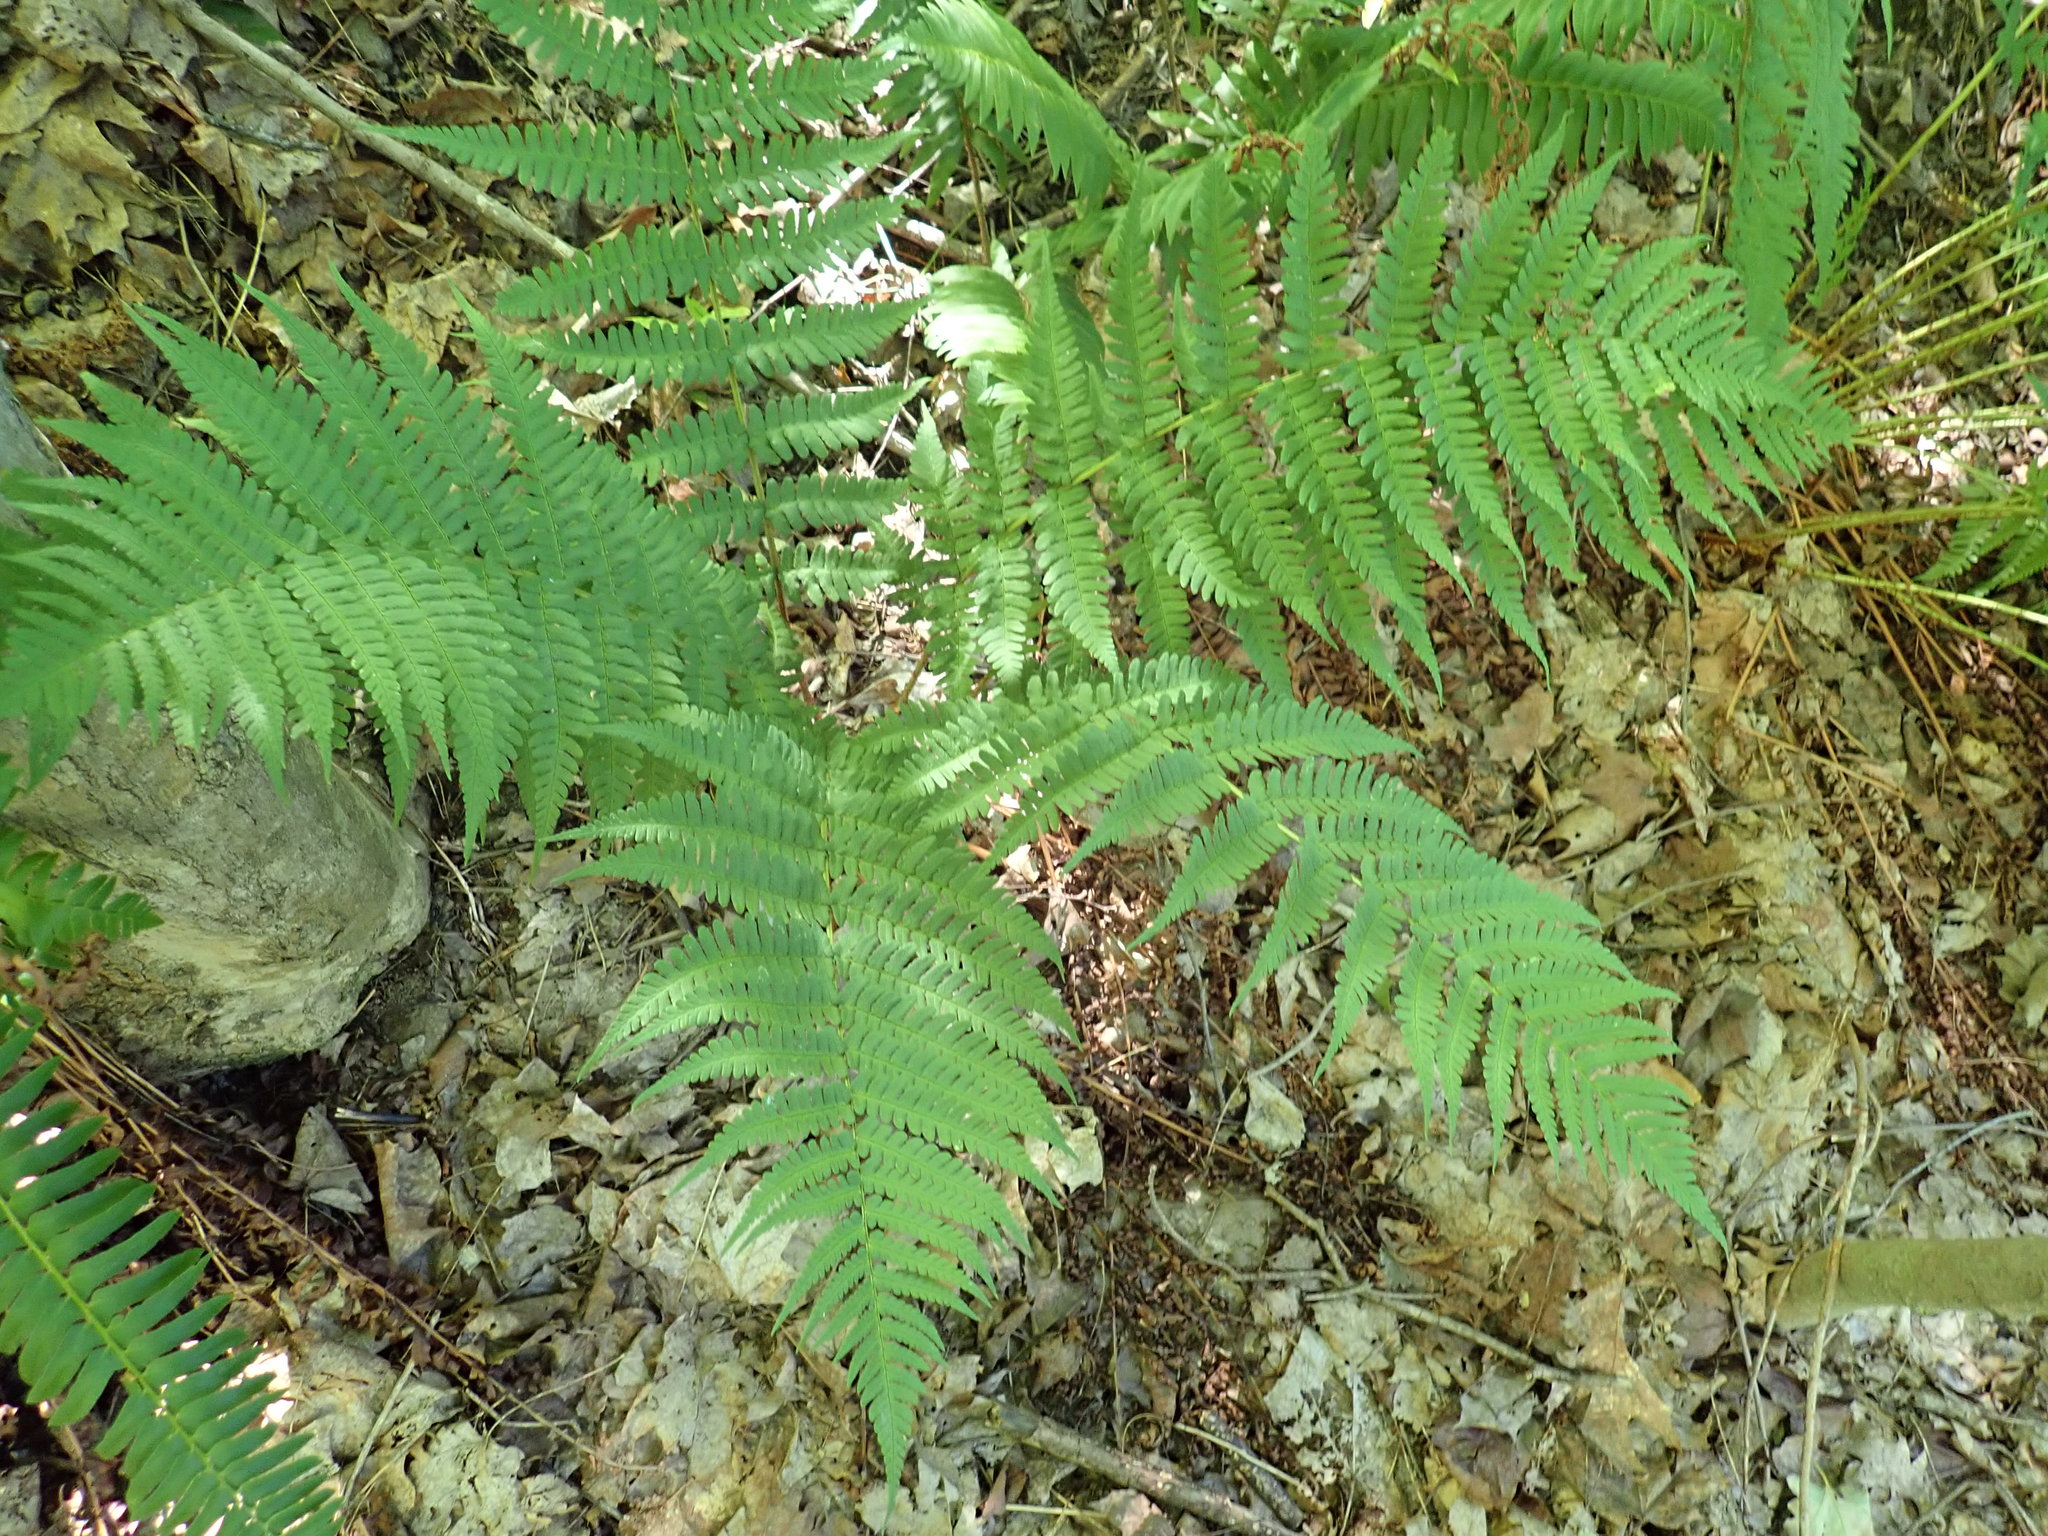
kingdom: Plantae
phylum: Tracheophyta
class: Polypodiopsida
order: Polypodiales
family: Dryopteridaceae
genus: Dryopteris
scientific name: Dryopteris marginalis
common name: Marginal wood fern
